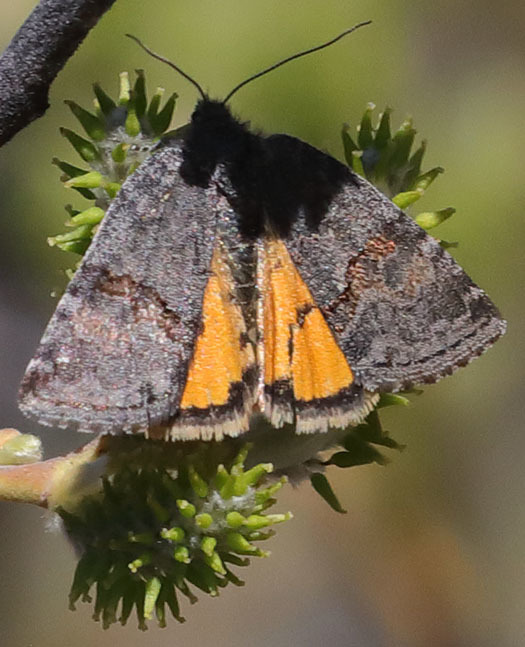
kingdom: Animalia
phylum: Arthropoda
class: Insecta
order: Lepidoptera
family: Noctuidae
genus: Annaphila
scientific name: Annaphila depicta
